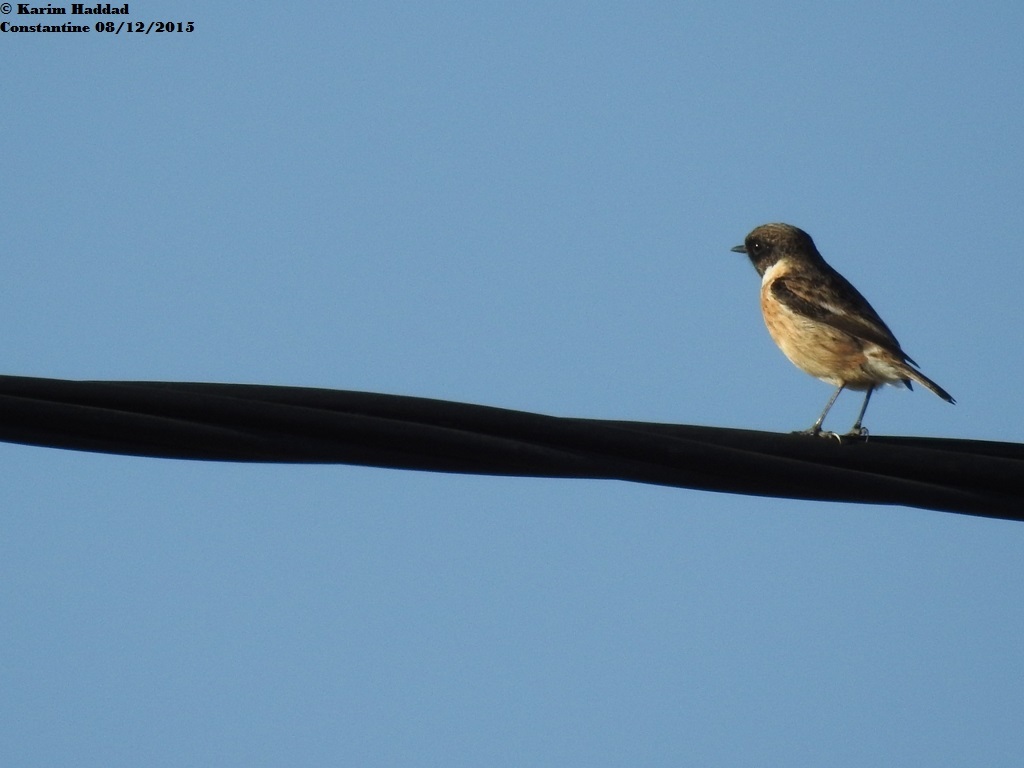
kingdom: Animalia
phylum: Chordata
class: Aves
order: Passeriformes
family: Muscicapidae
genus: Saxicola
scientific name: Saxicola rubicola
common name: European stonechat
